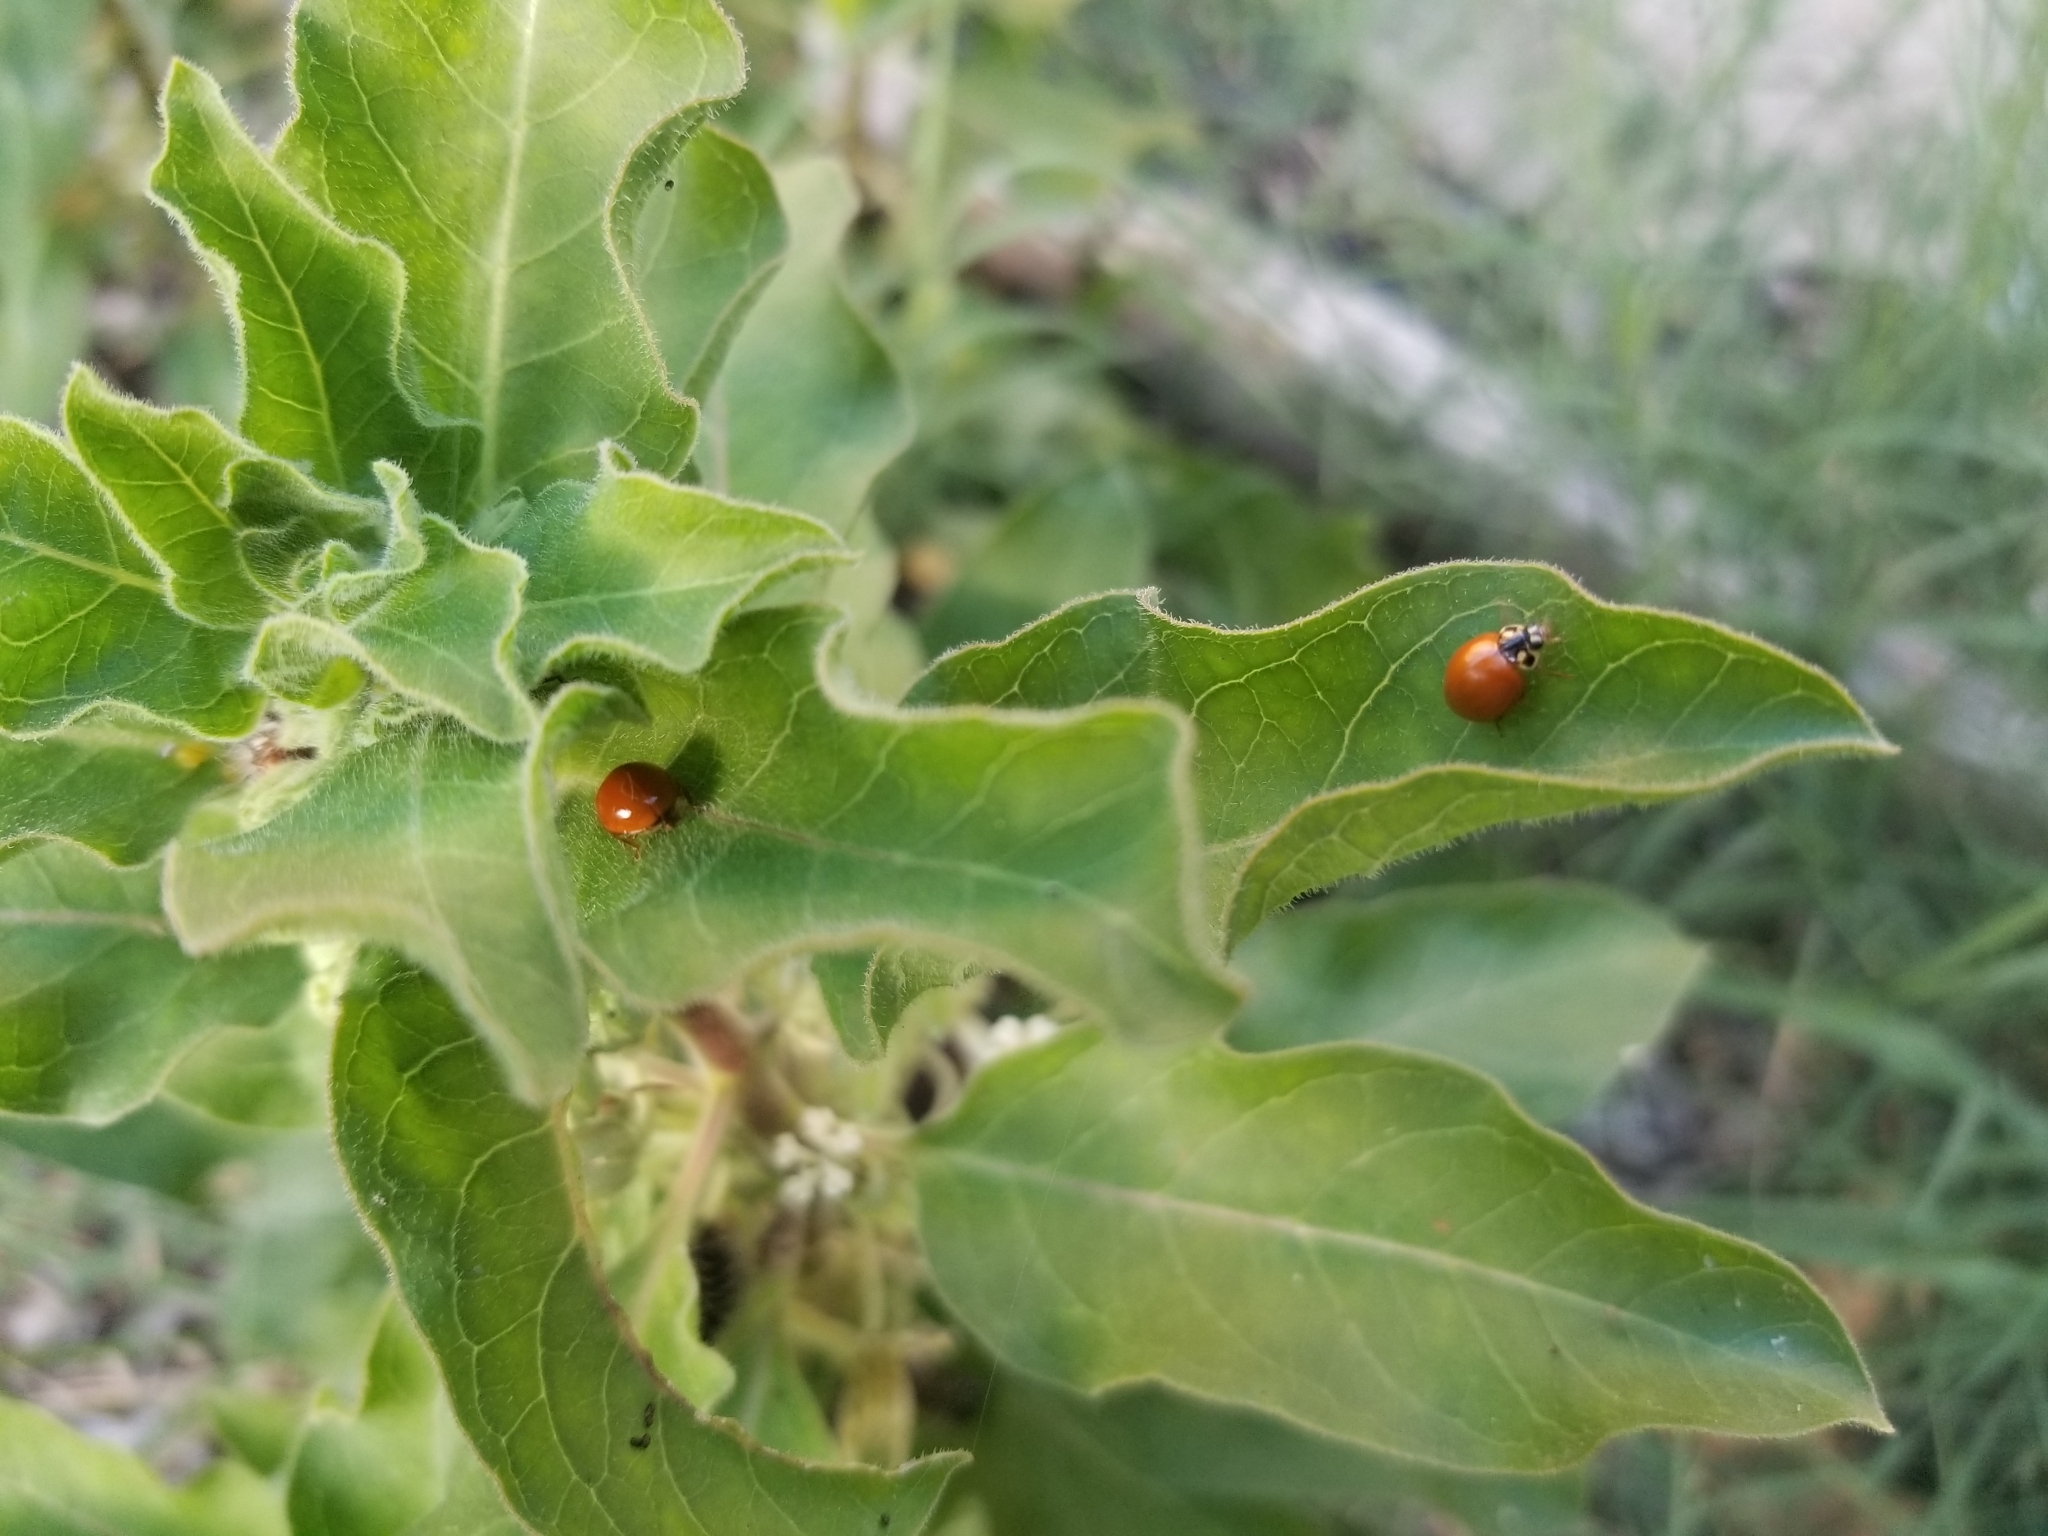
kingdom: Animalia
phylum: Arthropoda
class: Insecta
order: Coleoptera
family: Coccinellidae
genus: Cycloneda
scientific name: Cycloneda sanguinea
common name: Ladybird beetle
